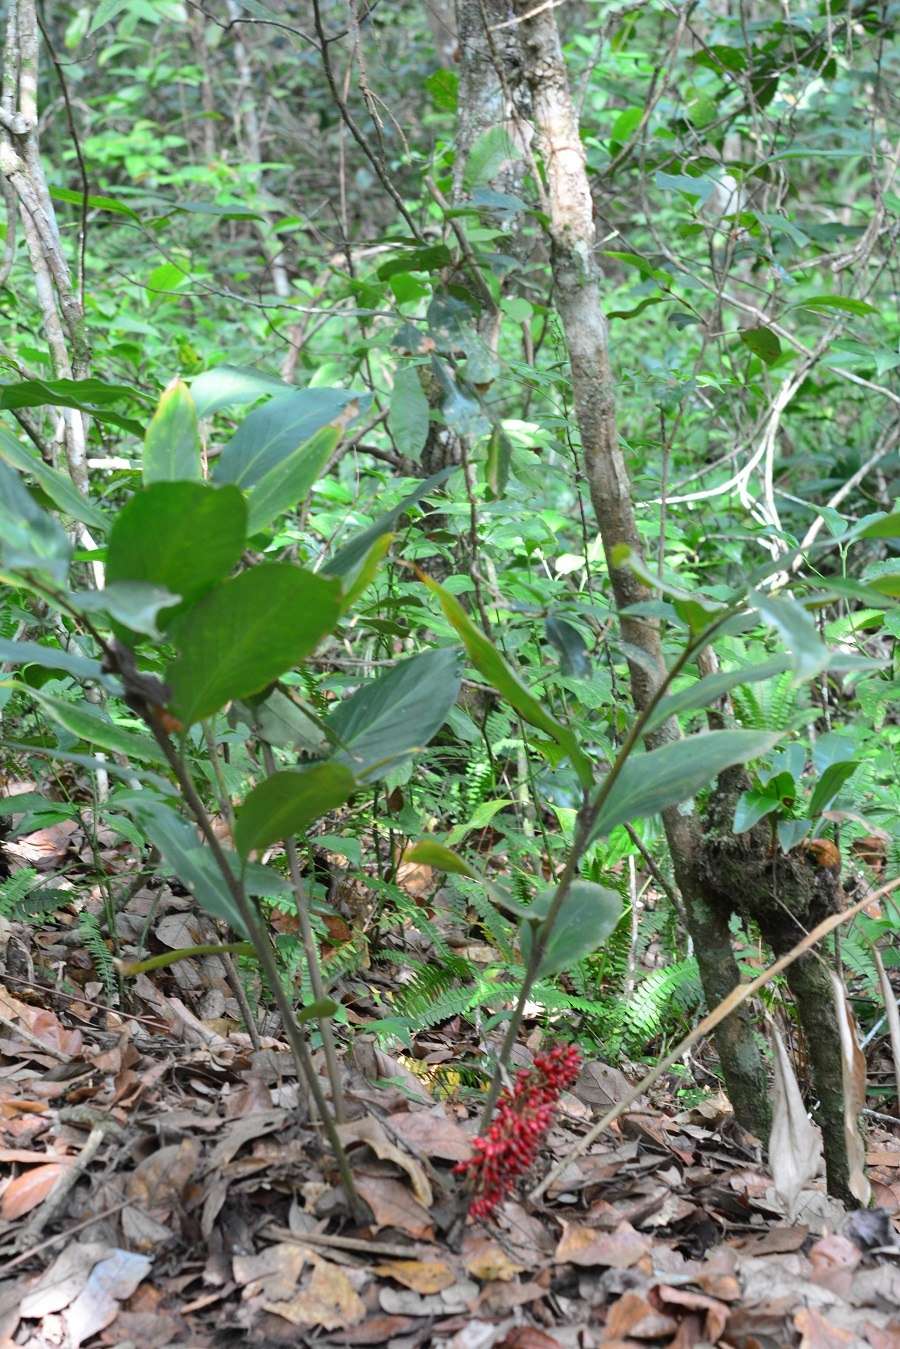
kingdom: Plantae
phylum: Tracheophyta
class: Liliopsida
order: Zingiberales
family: Zingiberaceae
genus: Renealmia
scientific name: Renealmia mexicana
